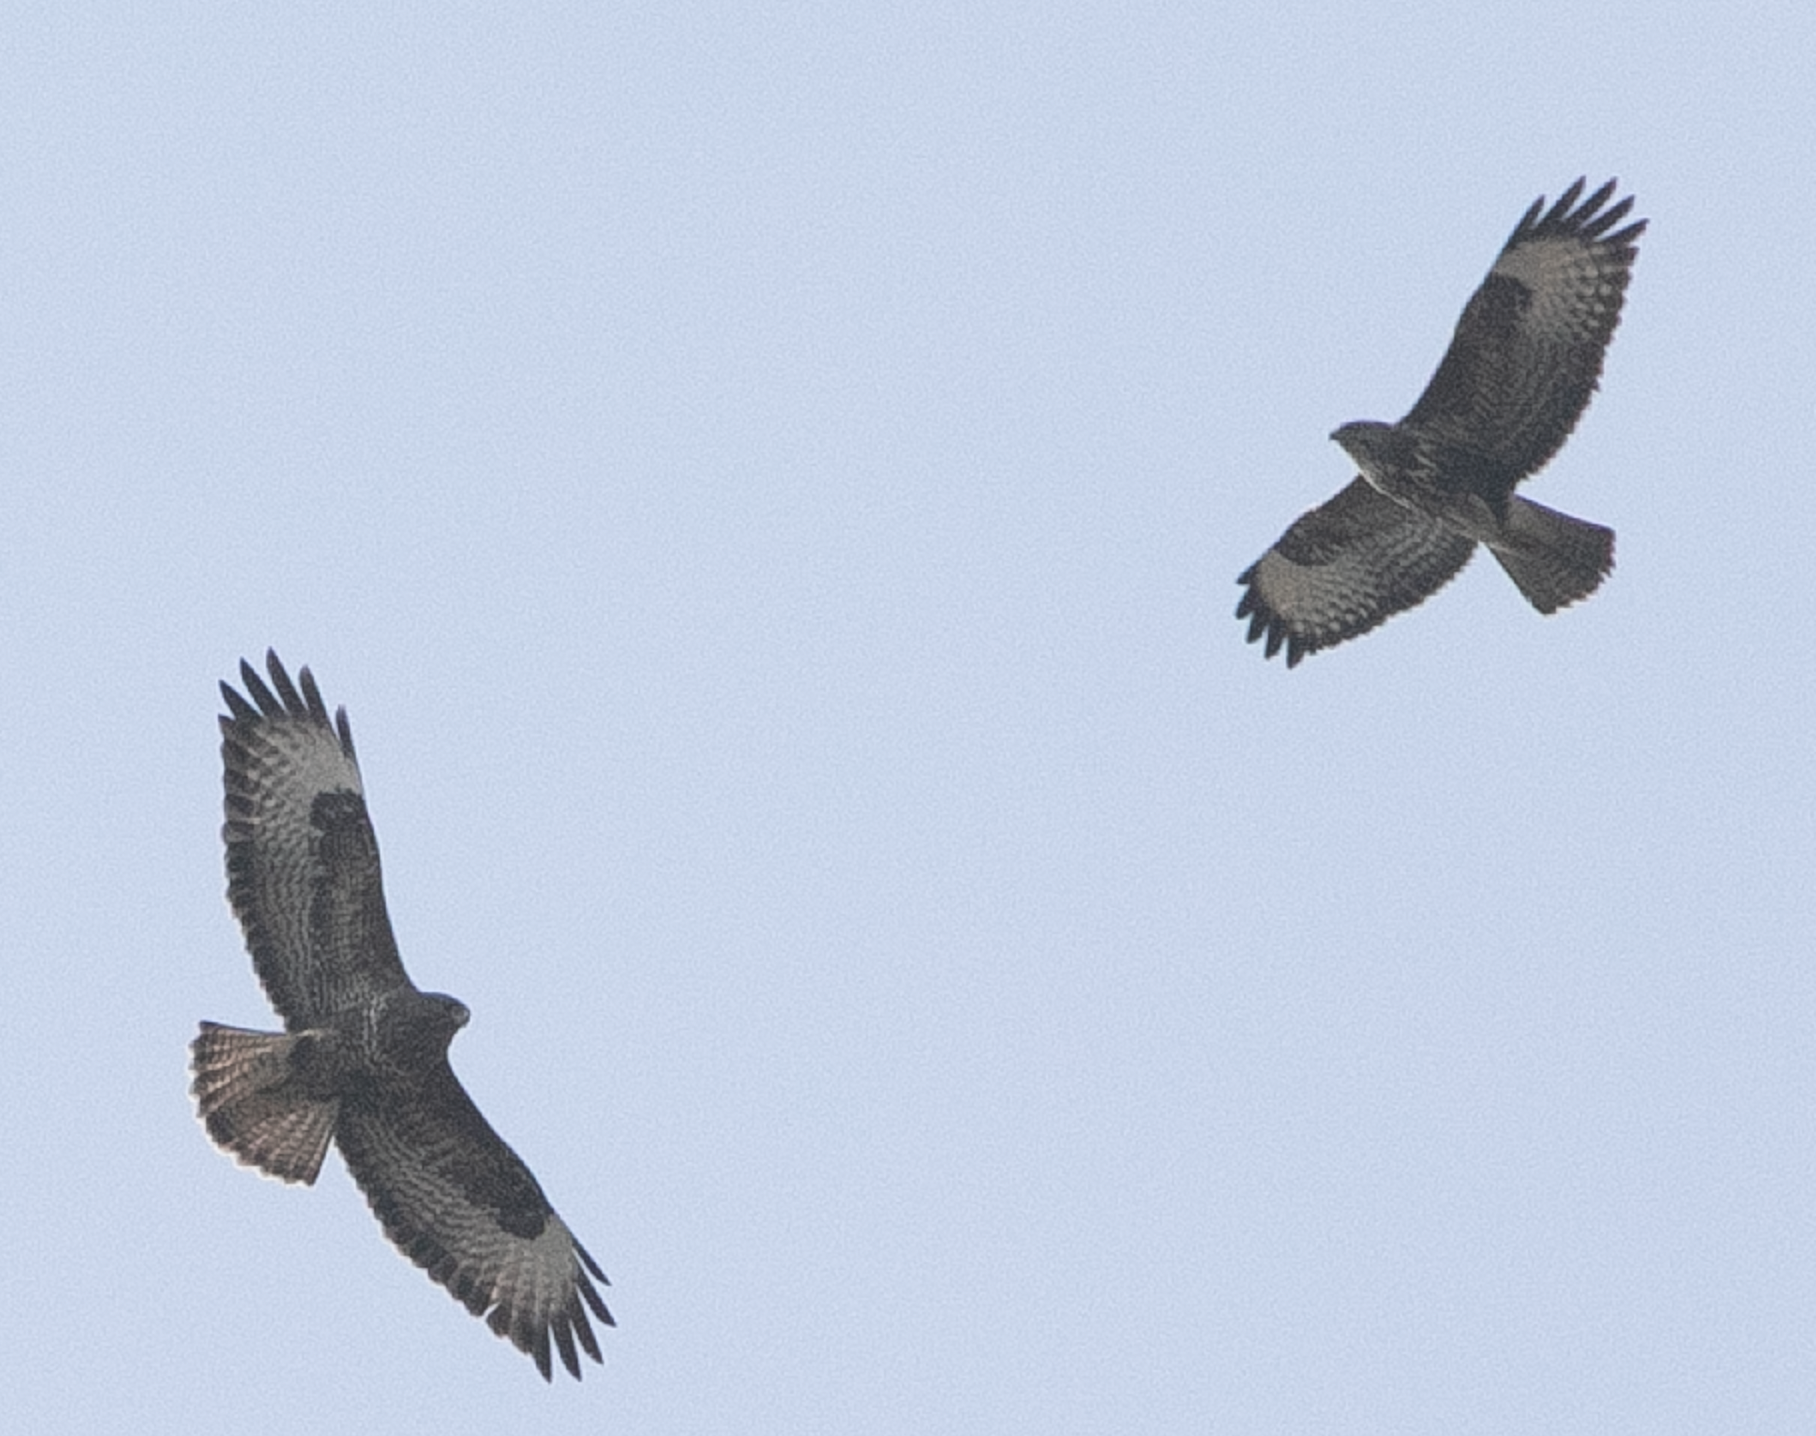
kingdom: Animalia
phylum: Chordata
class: Aves
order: Accipitriformes
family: Accipitridae
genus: Buteo
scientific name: Buteo buteo
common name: Common buzzard
